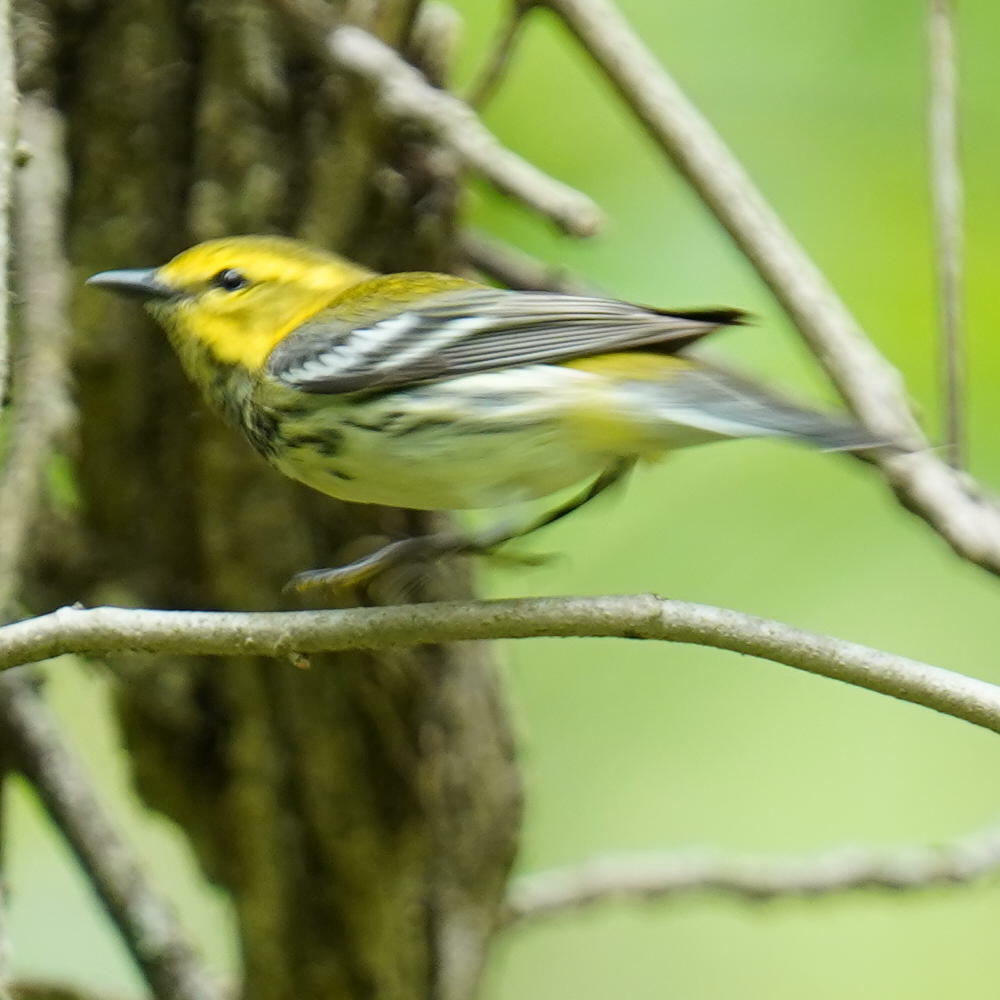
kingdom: Animalia
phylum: Chordata
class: Aves
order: Passeriformes
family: Parulidae
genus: Setophaga
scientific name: Setophaga virens
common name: Black-throated green warbler
